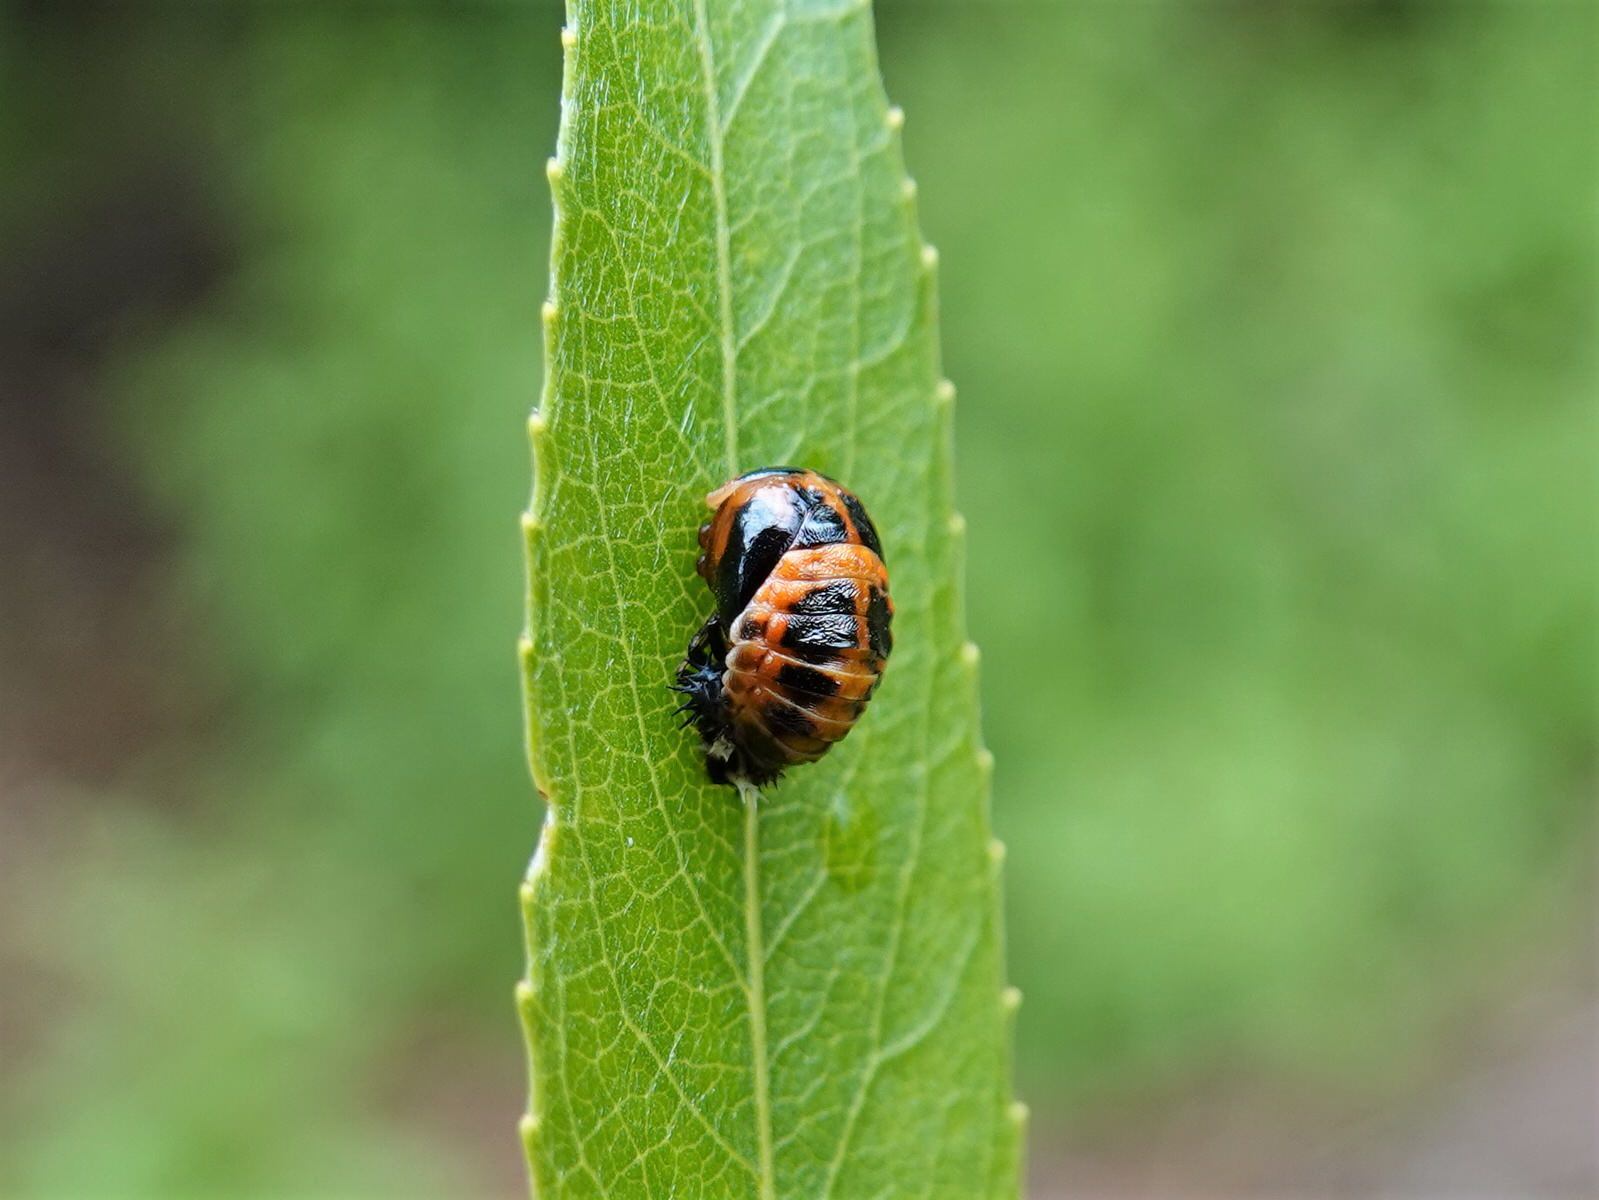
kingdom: Animalia
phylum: Arthropoda
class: Insecta
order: Coleoptera
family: Coccinellidae
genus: Harmonia
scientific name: Harmonia axyridis
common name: Harlequin ladybird
